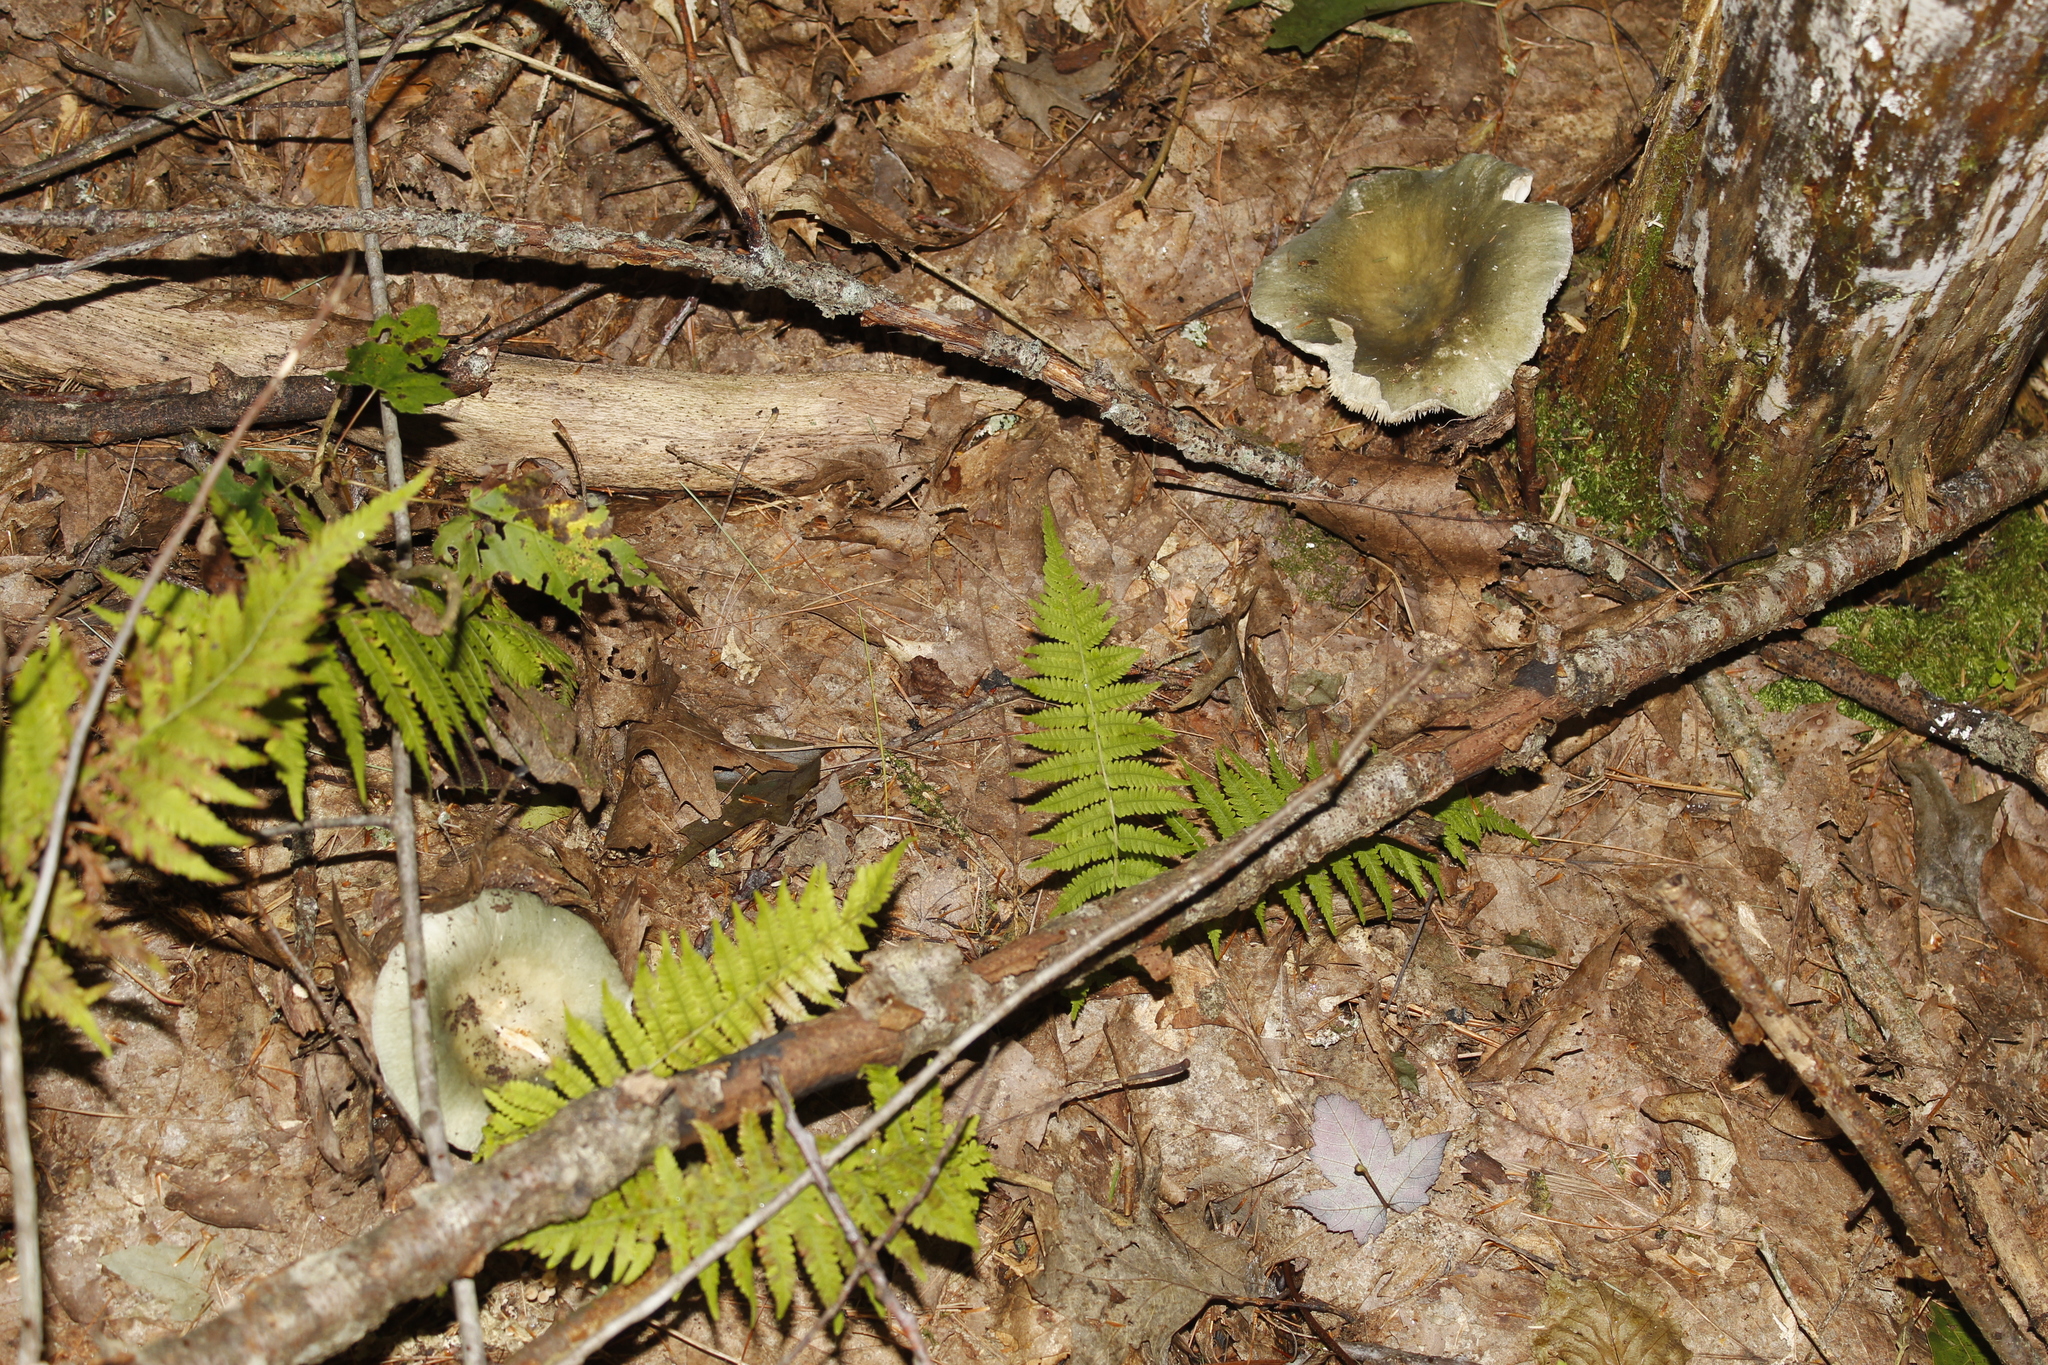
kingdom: Plantae
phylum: Tracheophyta
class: Polypodiopsida
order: Polypodiales
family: Thelypteridaceae
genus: Amauropelta
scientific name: Amauropelta noveboracensis
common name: New york fern
